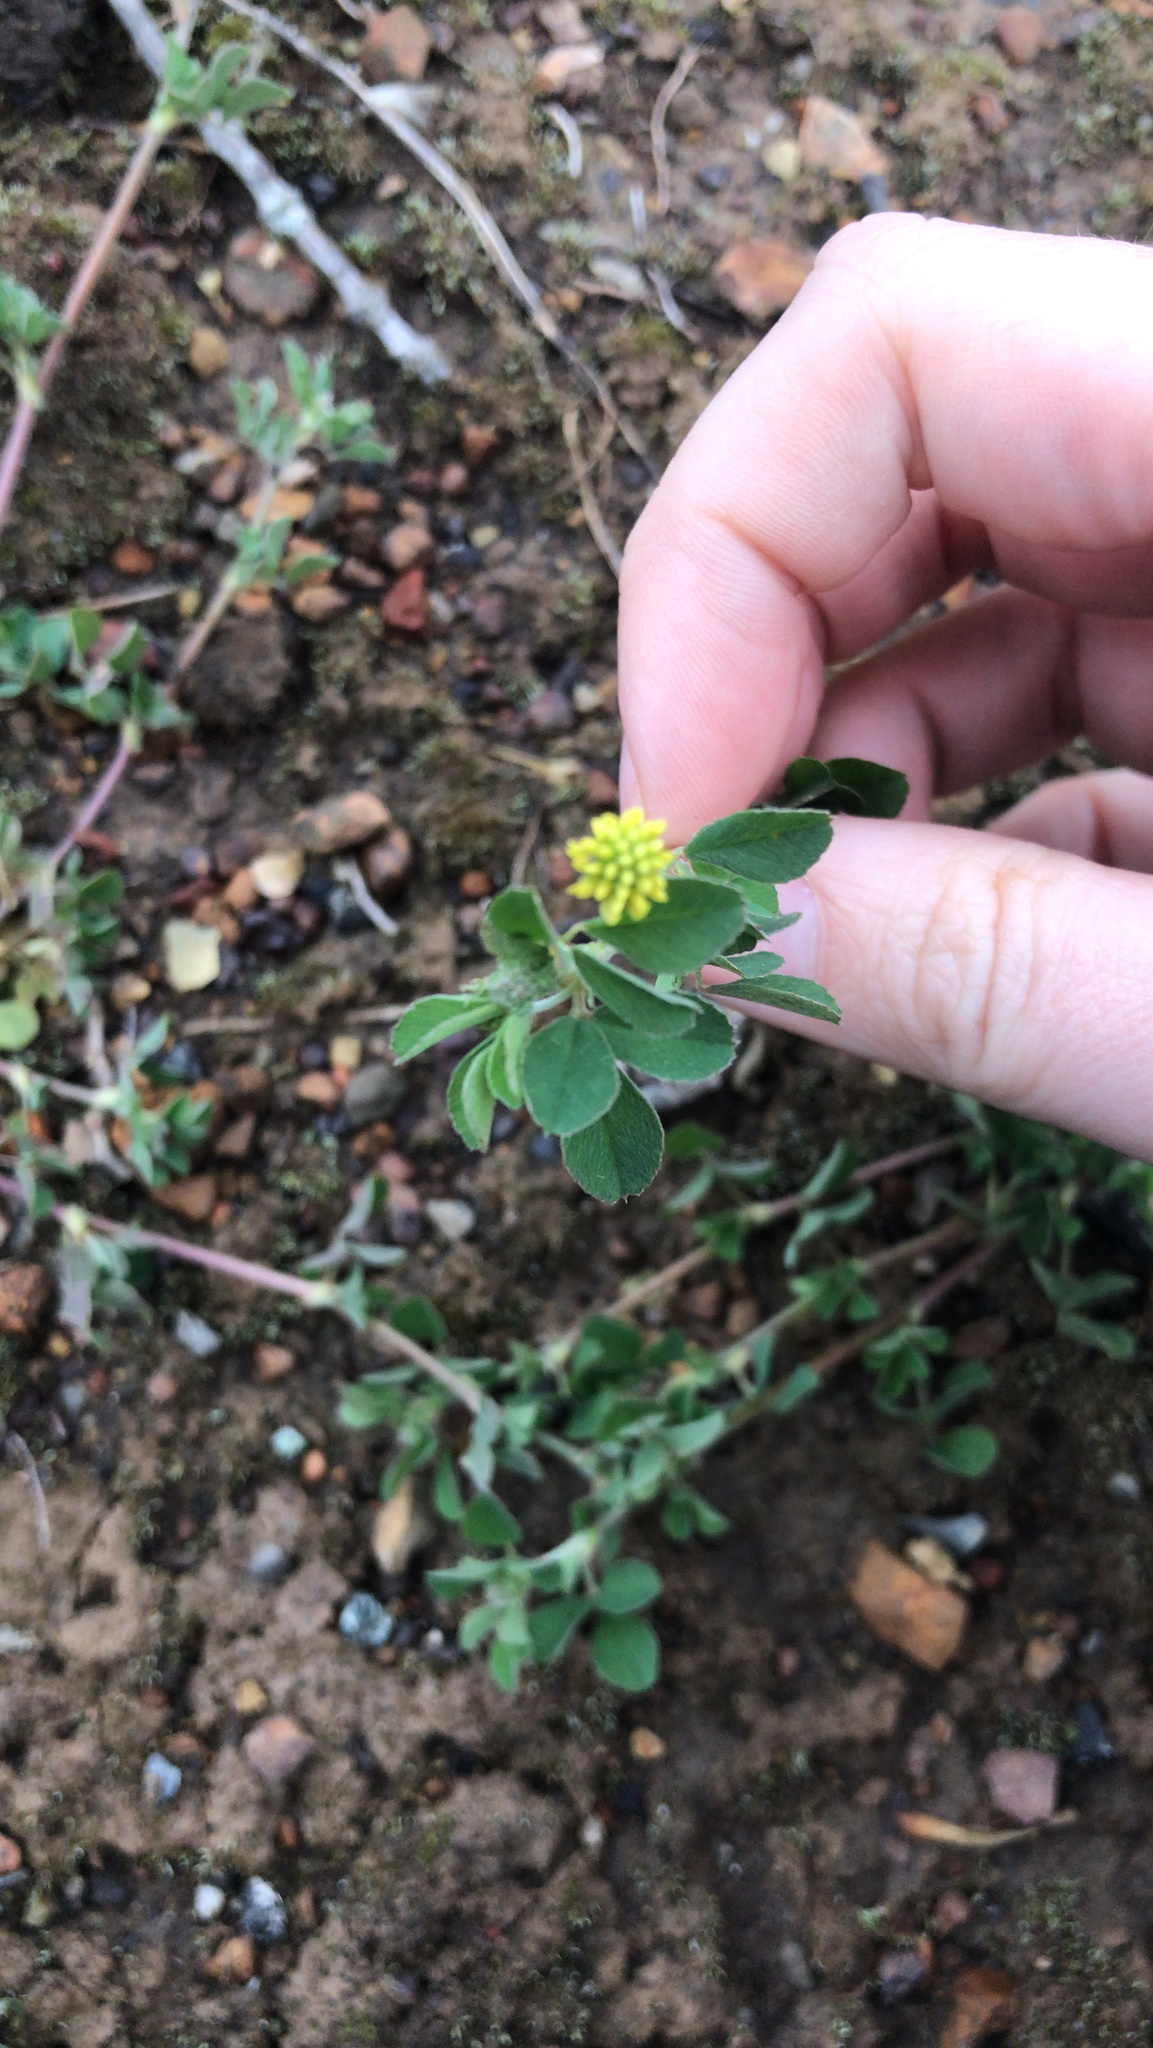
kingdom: Plantae
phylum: Tracheophyta
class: Magnoliopsida
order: Fabales
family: Fabaceae
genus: Medicago
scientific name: Medicago lupulina
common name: Black medick
